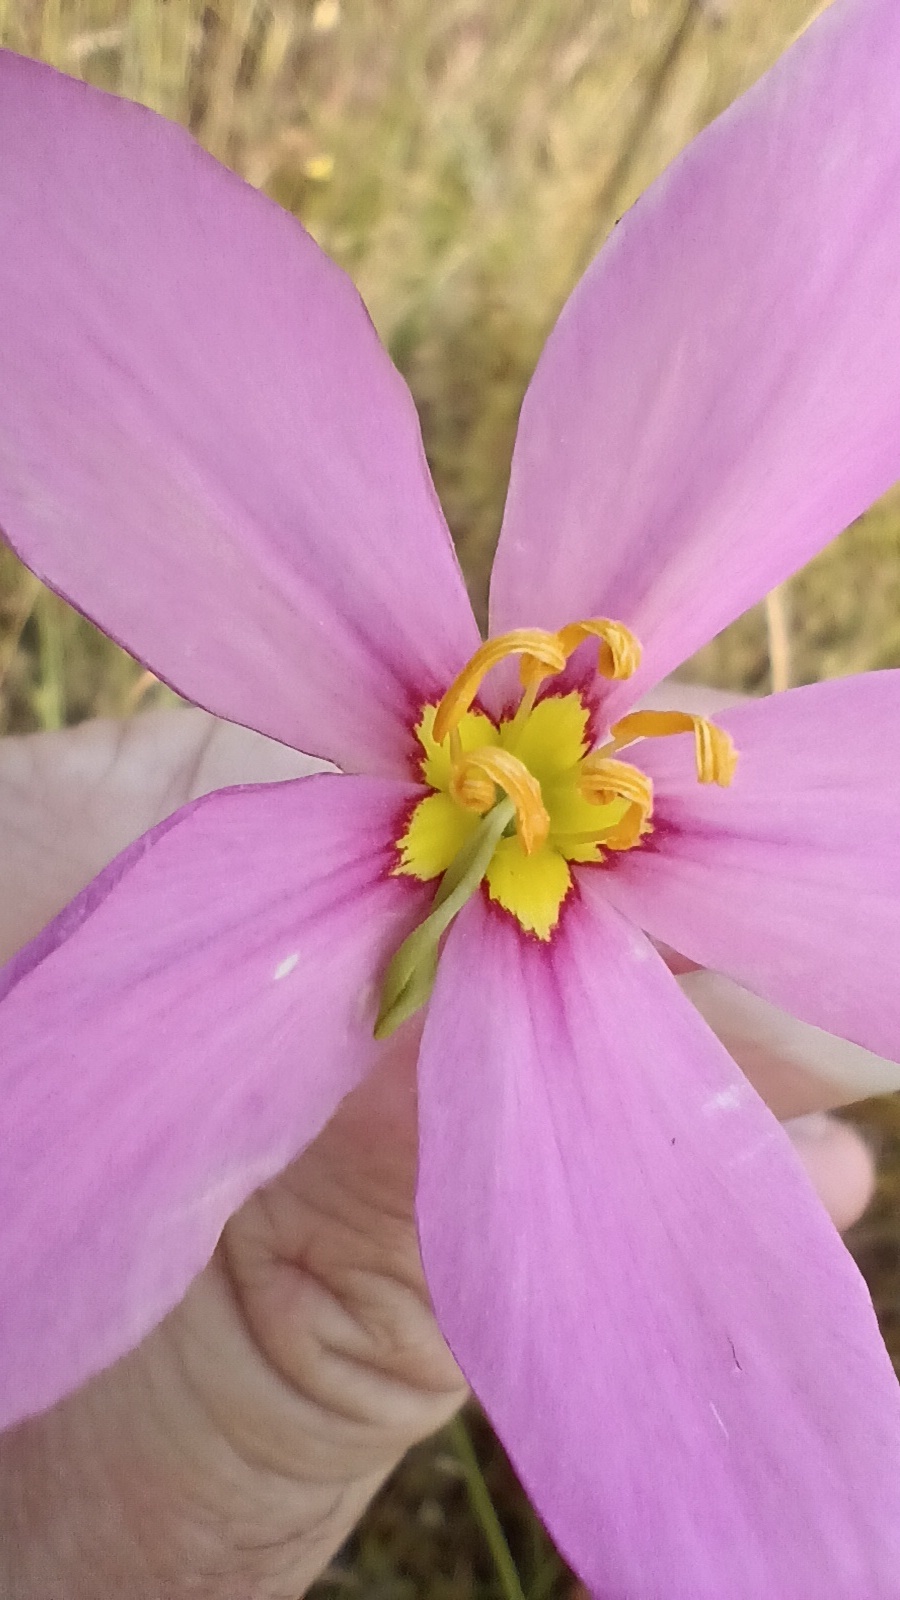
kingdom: Plantae
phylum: Tracheophyta
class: Magnoliopsida
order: Gentianales
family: Gentianaceae
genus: Sabatia
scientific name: Sabatia grandiflora
